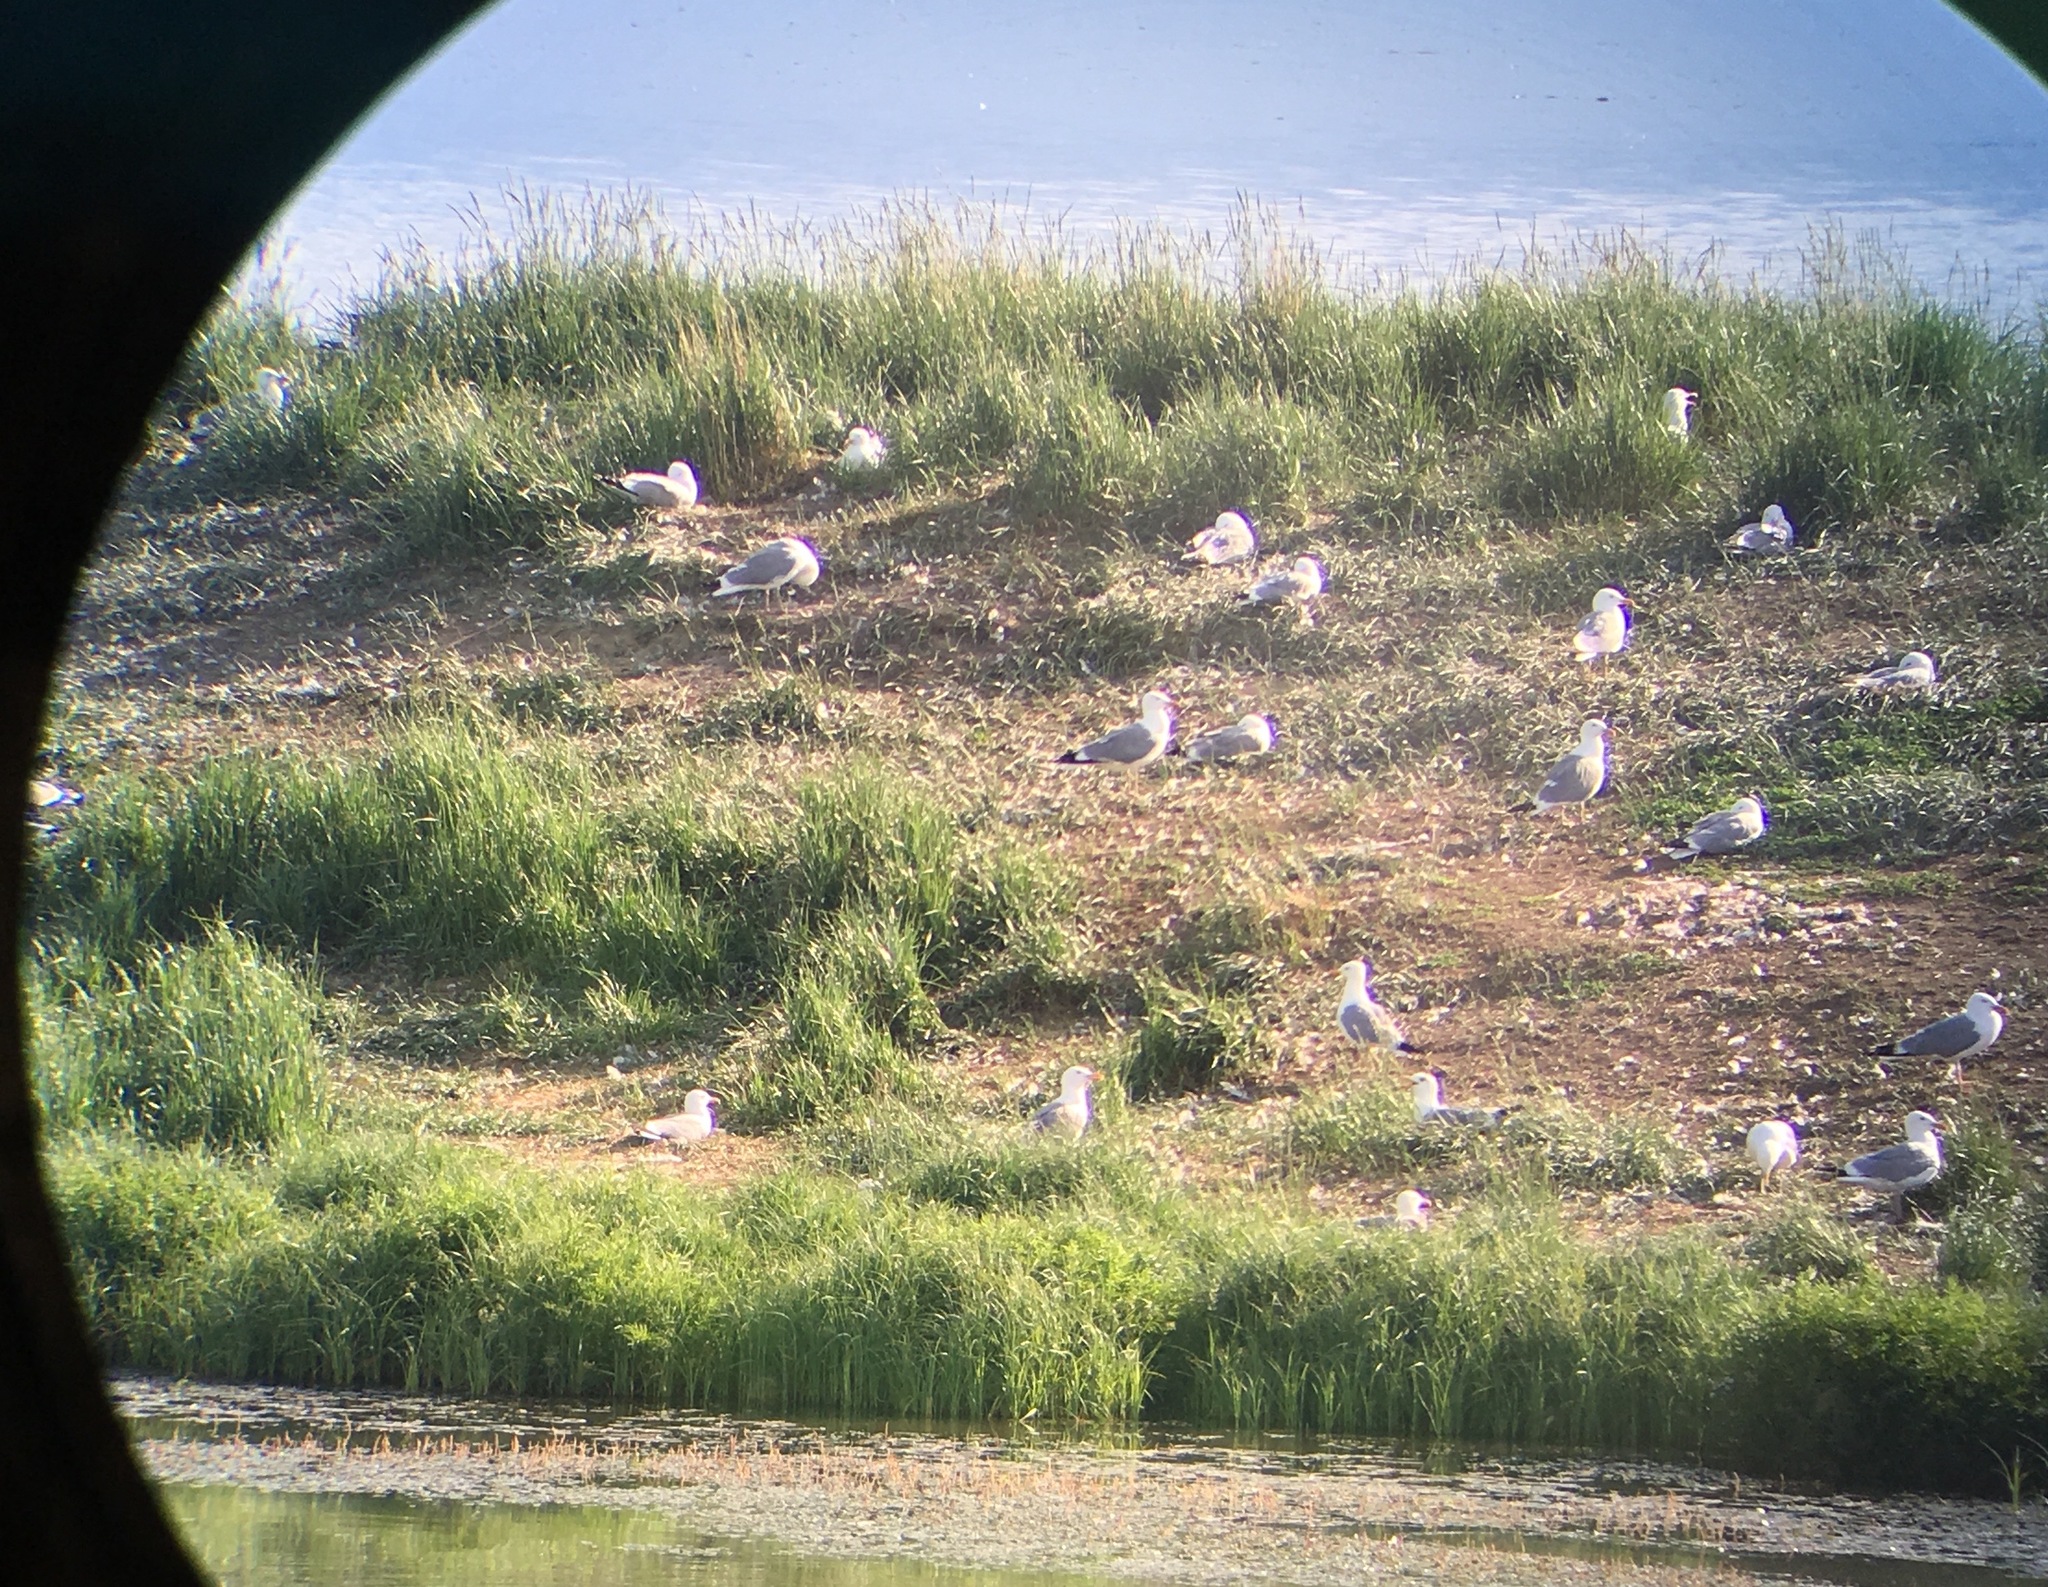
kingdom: Animalia
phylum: Chordata
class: Aves
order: Charadriiformes
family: Laridae
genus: Larus
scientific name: Larus vegae
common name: Vega gull
